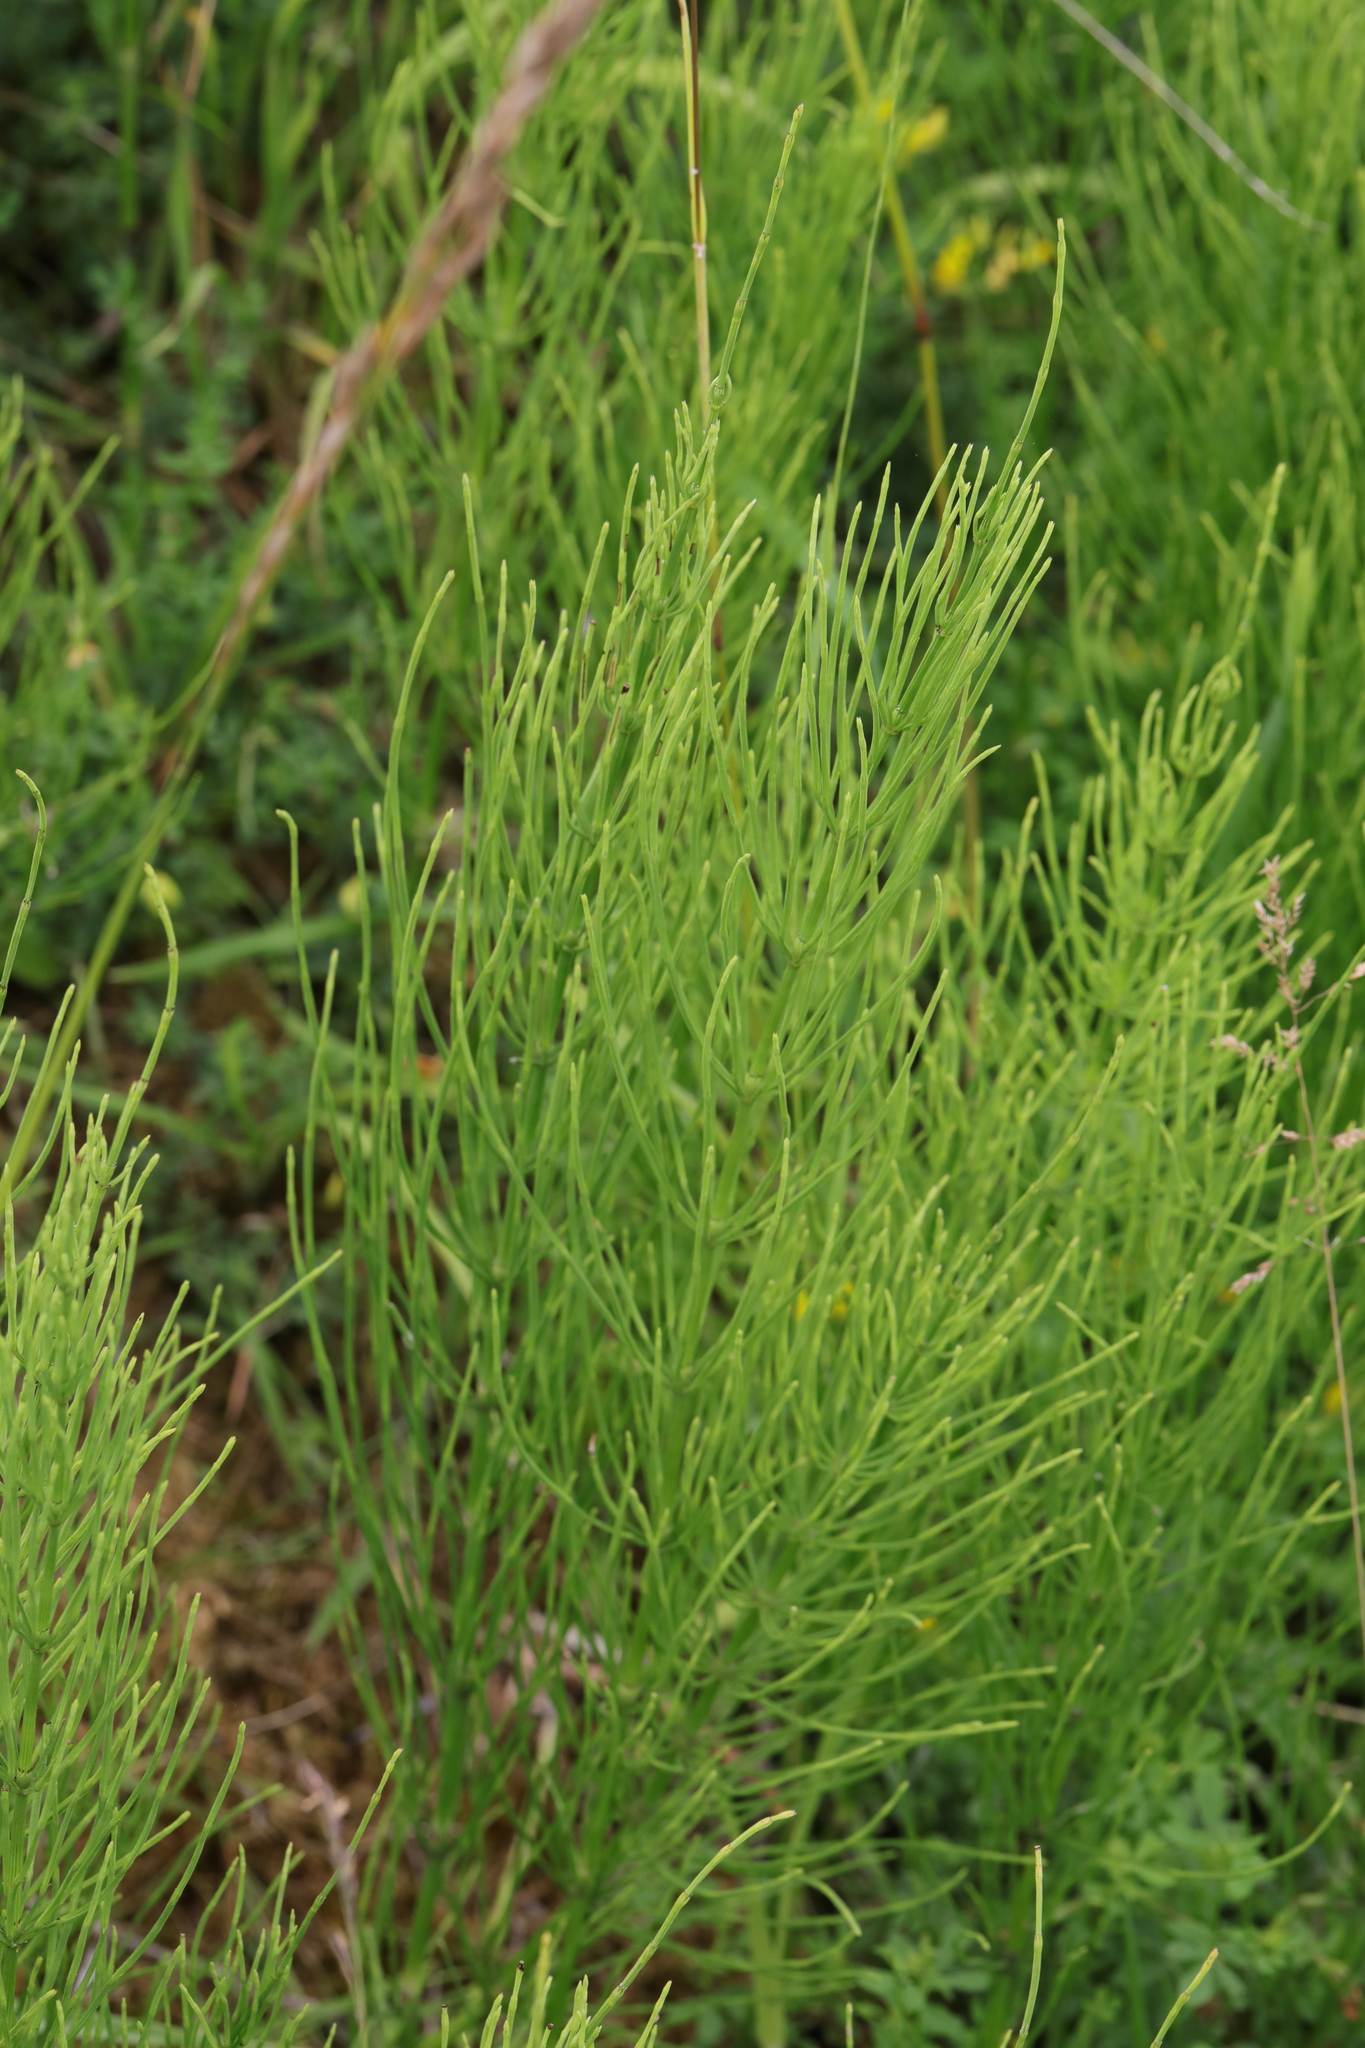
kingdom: Plantae
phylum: Tracheophyta
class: Polypodiopsida
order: Equisetales
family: Equisetaceae
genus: Equisetum
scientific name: Equisetum arvense
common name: Field horsetail
